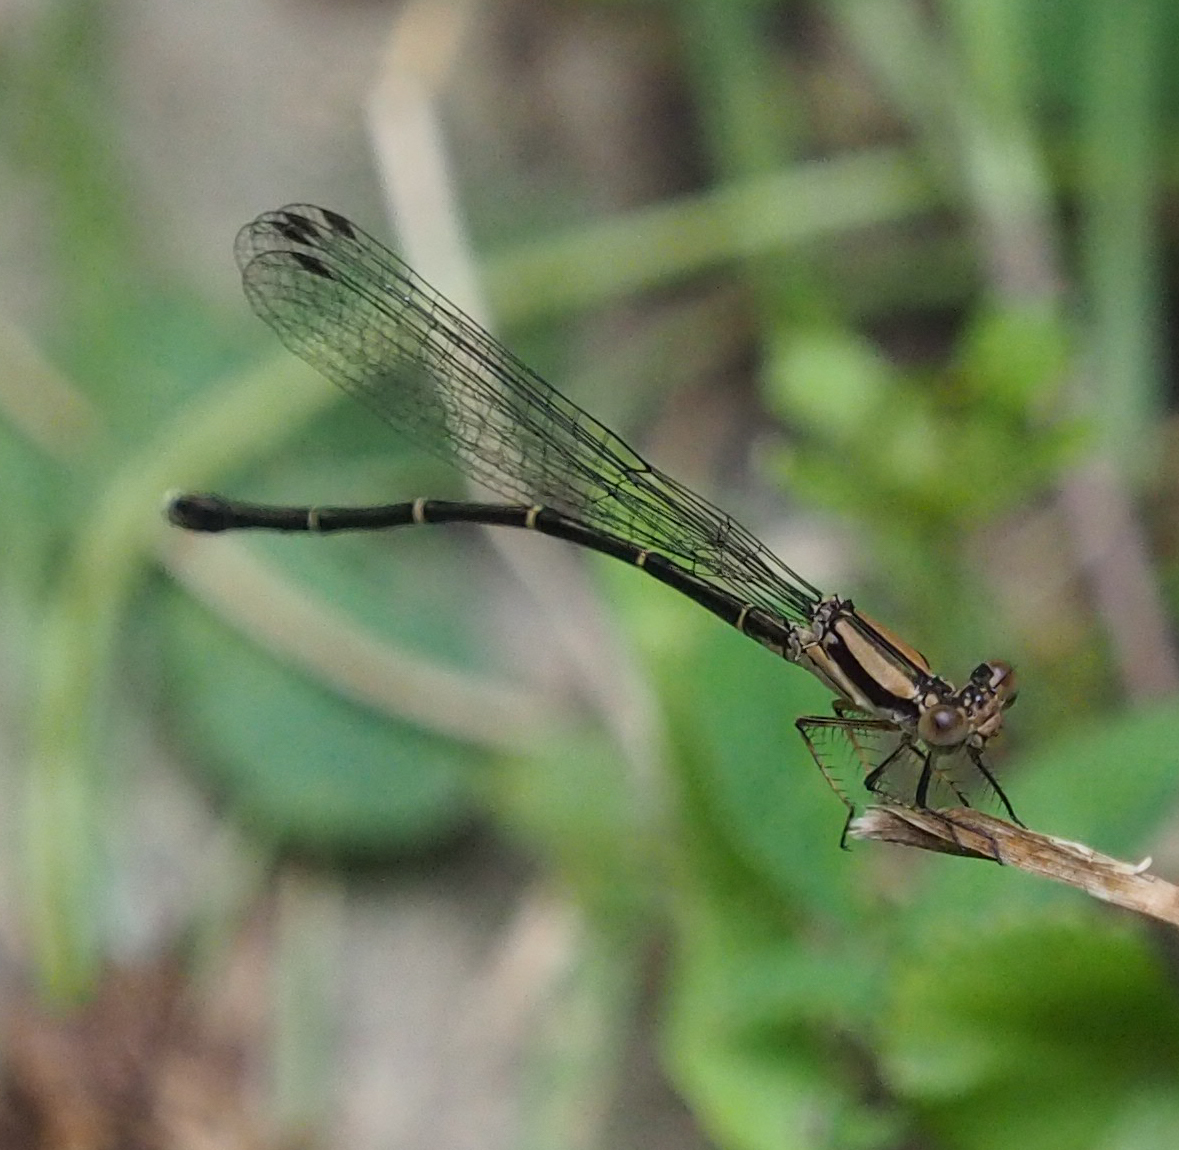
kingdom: Animalia
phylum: Arthropoda
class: Insecta
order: Odonata
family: Coenagrionidae
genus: Argia
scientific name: Argia tibialis
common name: Blue-tipped dancer
